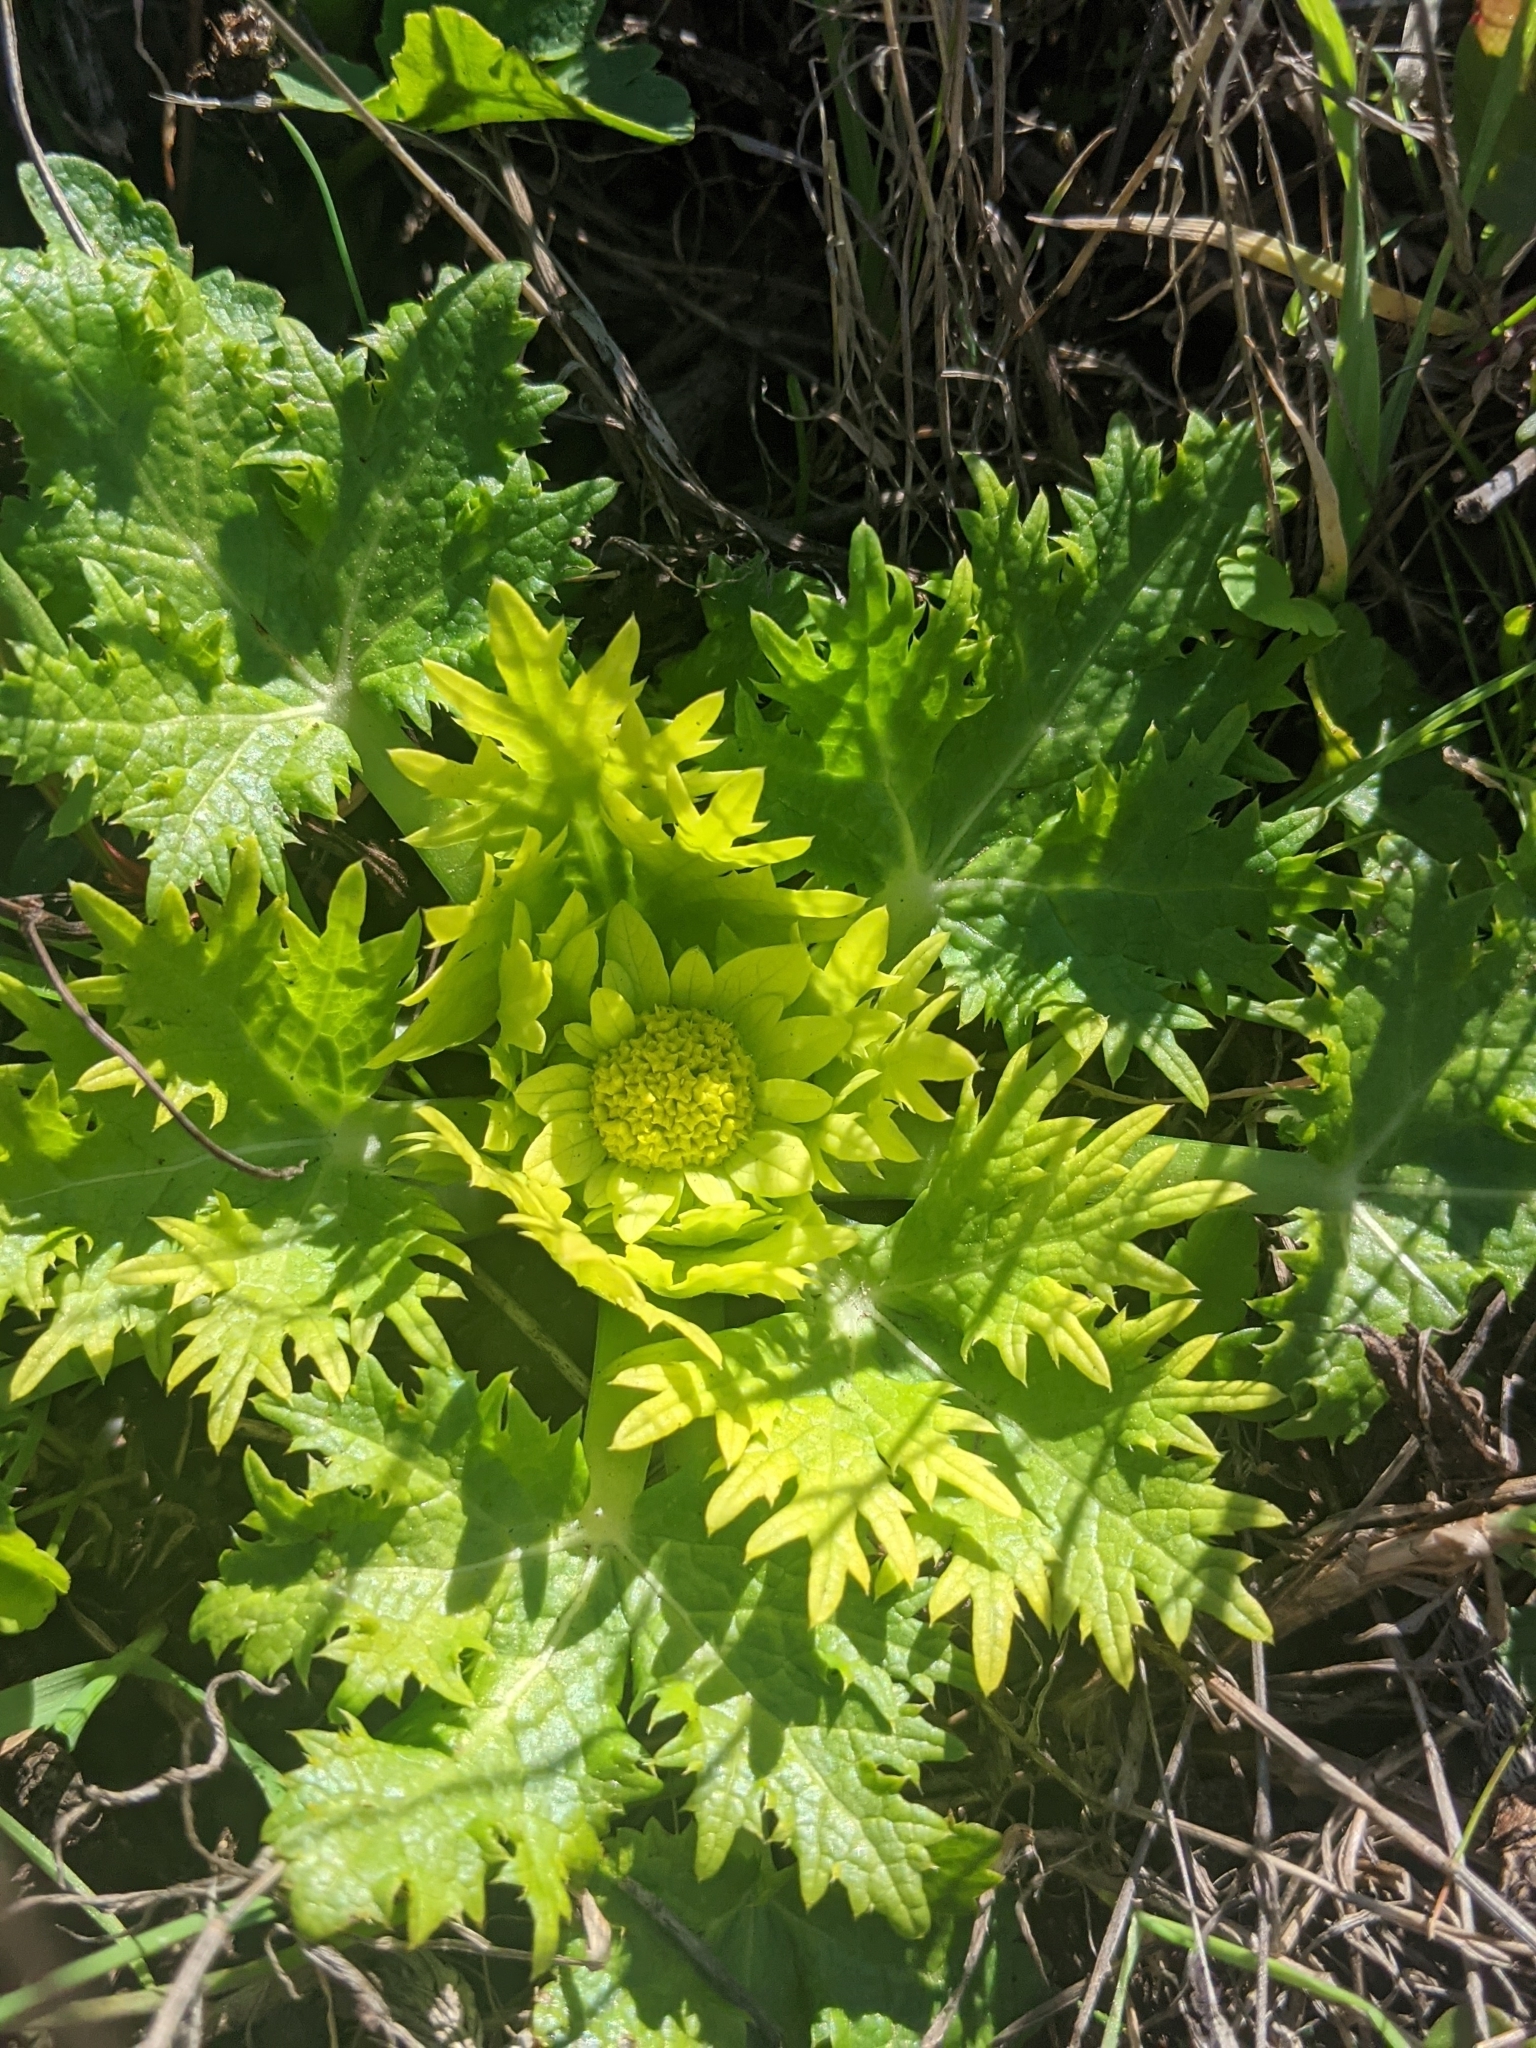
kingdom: Plantae
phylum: Tracheophyta
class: Magnoliopsida
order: Apiales
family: Apiaceae
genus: Sanicula
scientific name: Sanicula arctopoides
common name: Footsteps-of-spring
